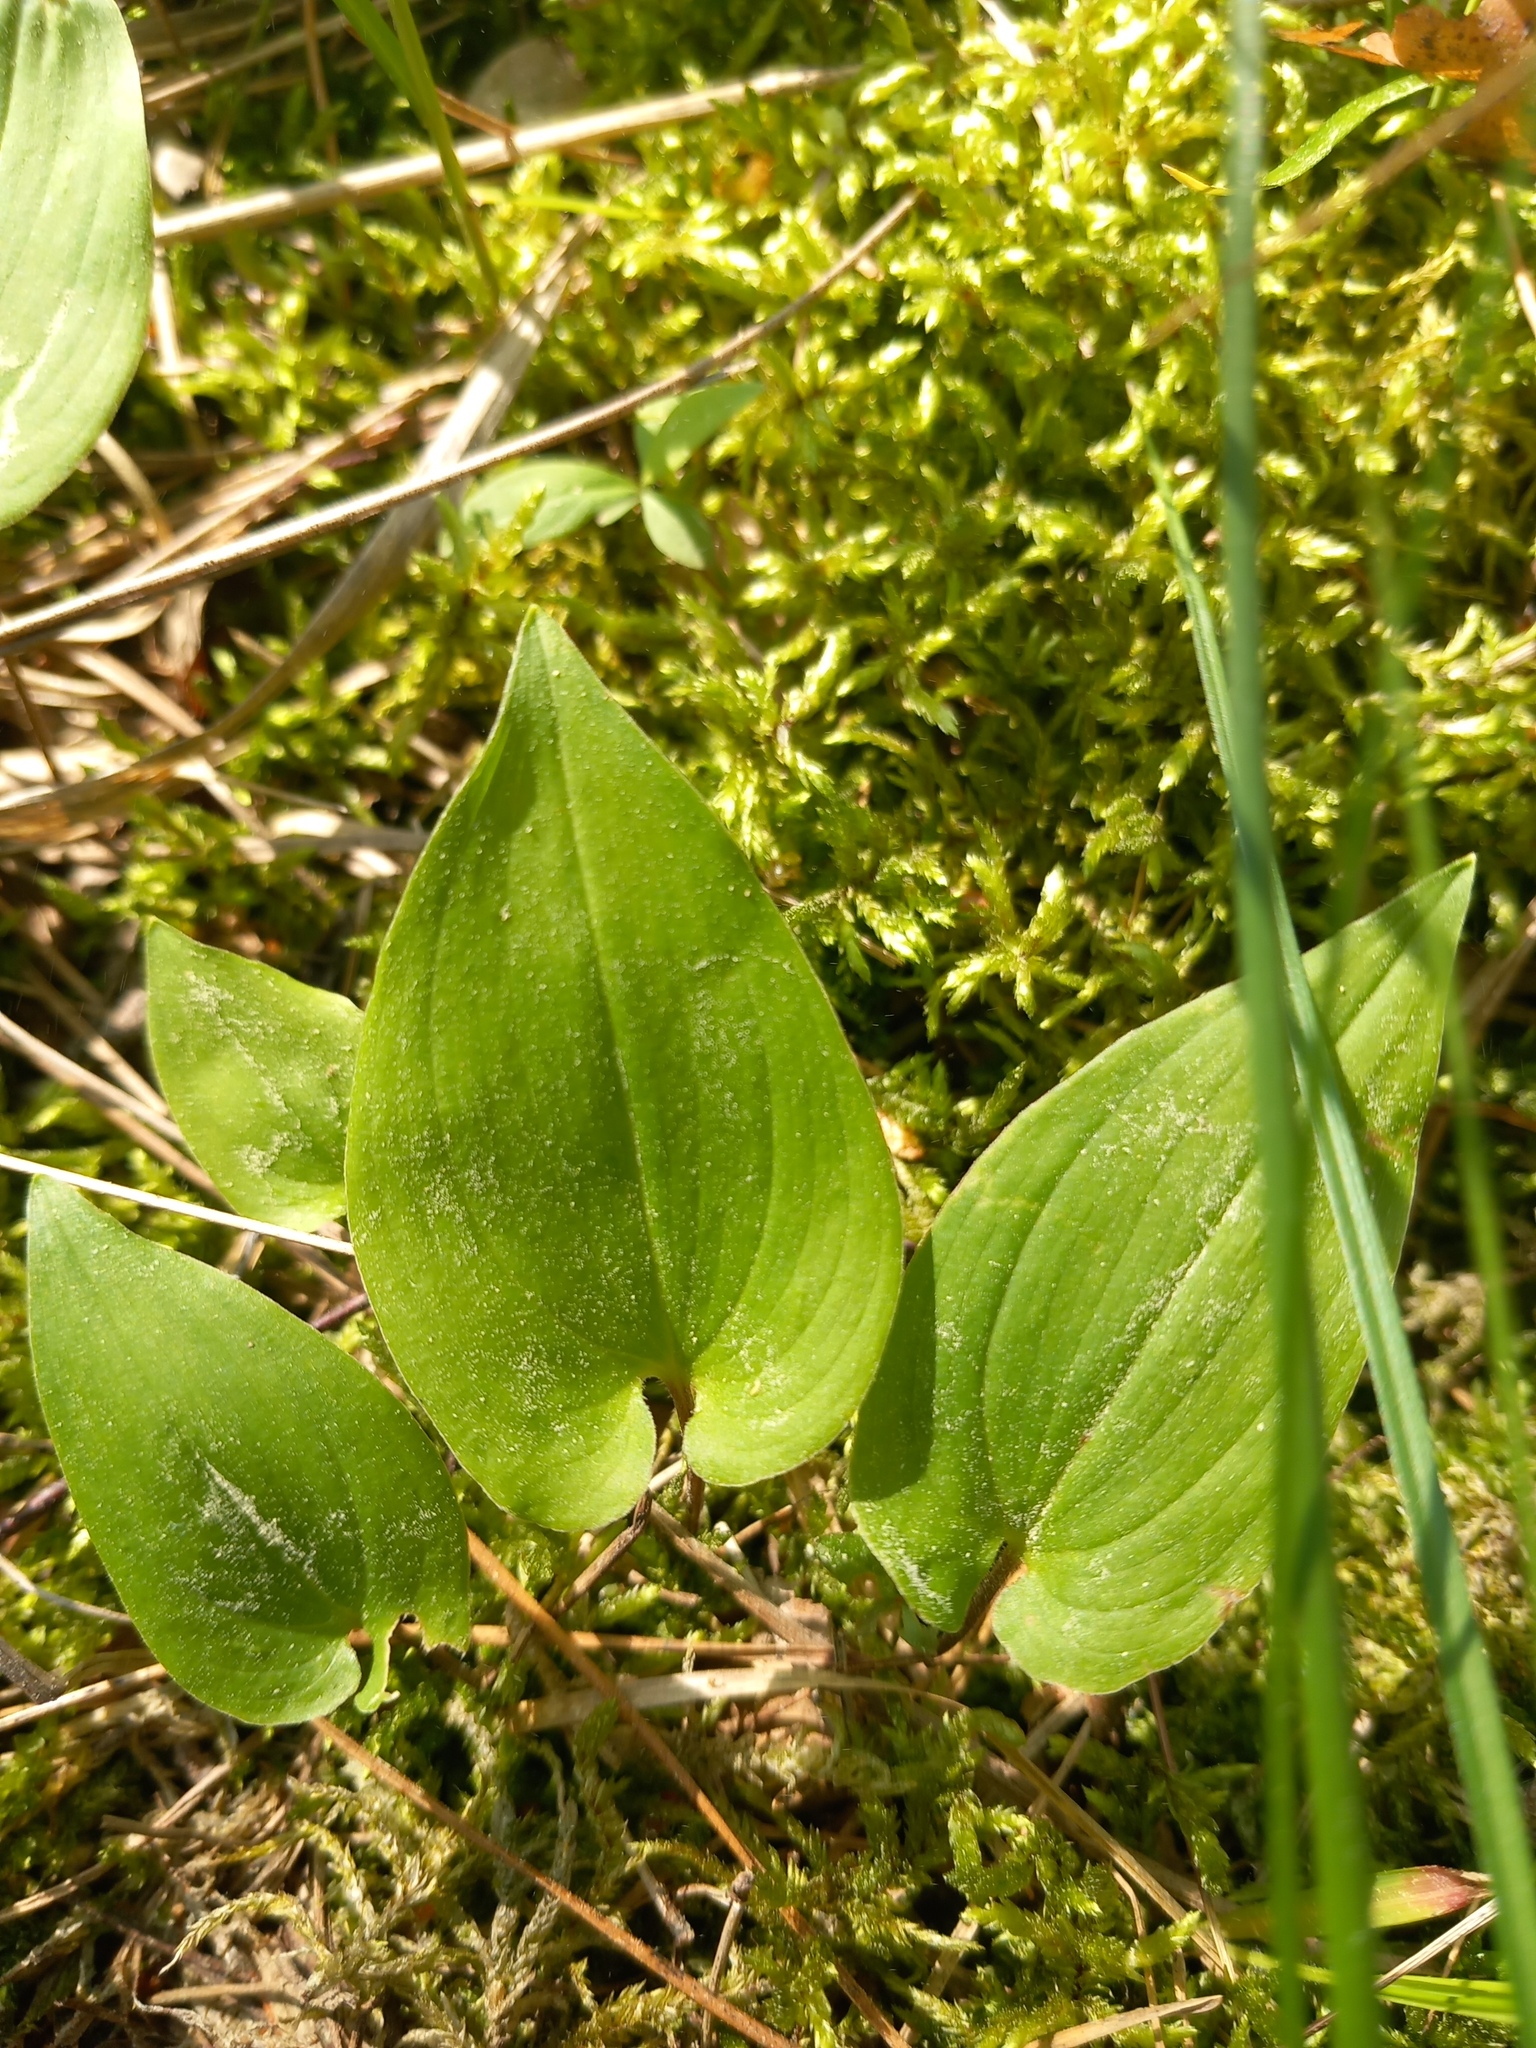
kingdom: Plantae
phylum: Tracheophyta
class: Liliopsida
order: Asparagales
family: Asparagaceae
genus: Maianthemum
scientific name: Maianthemum bifolium
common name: May lily
